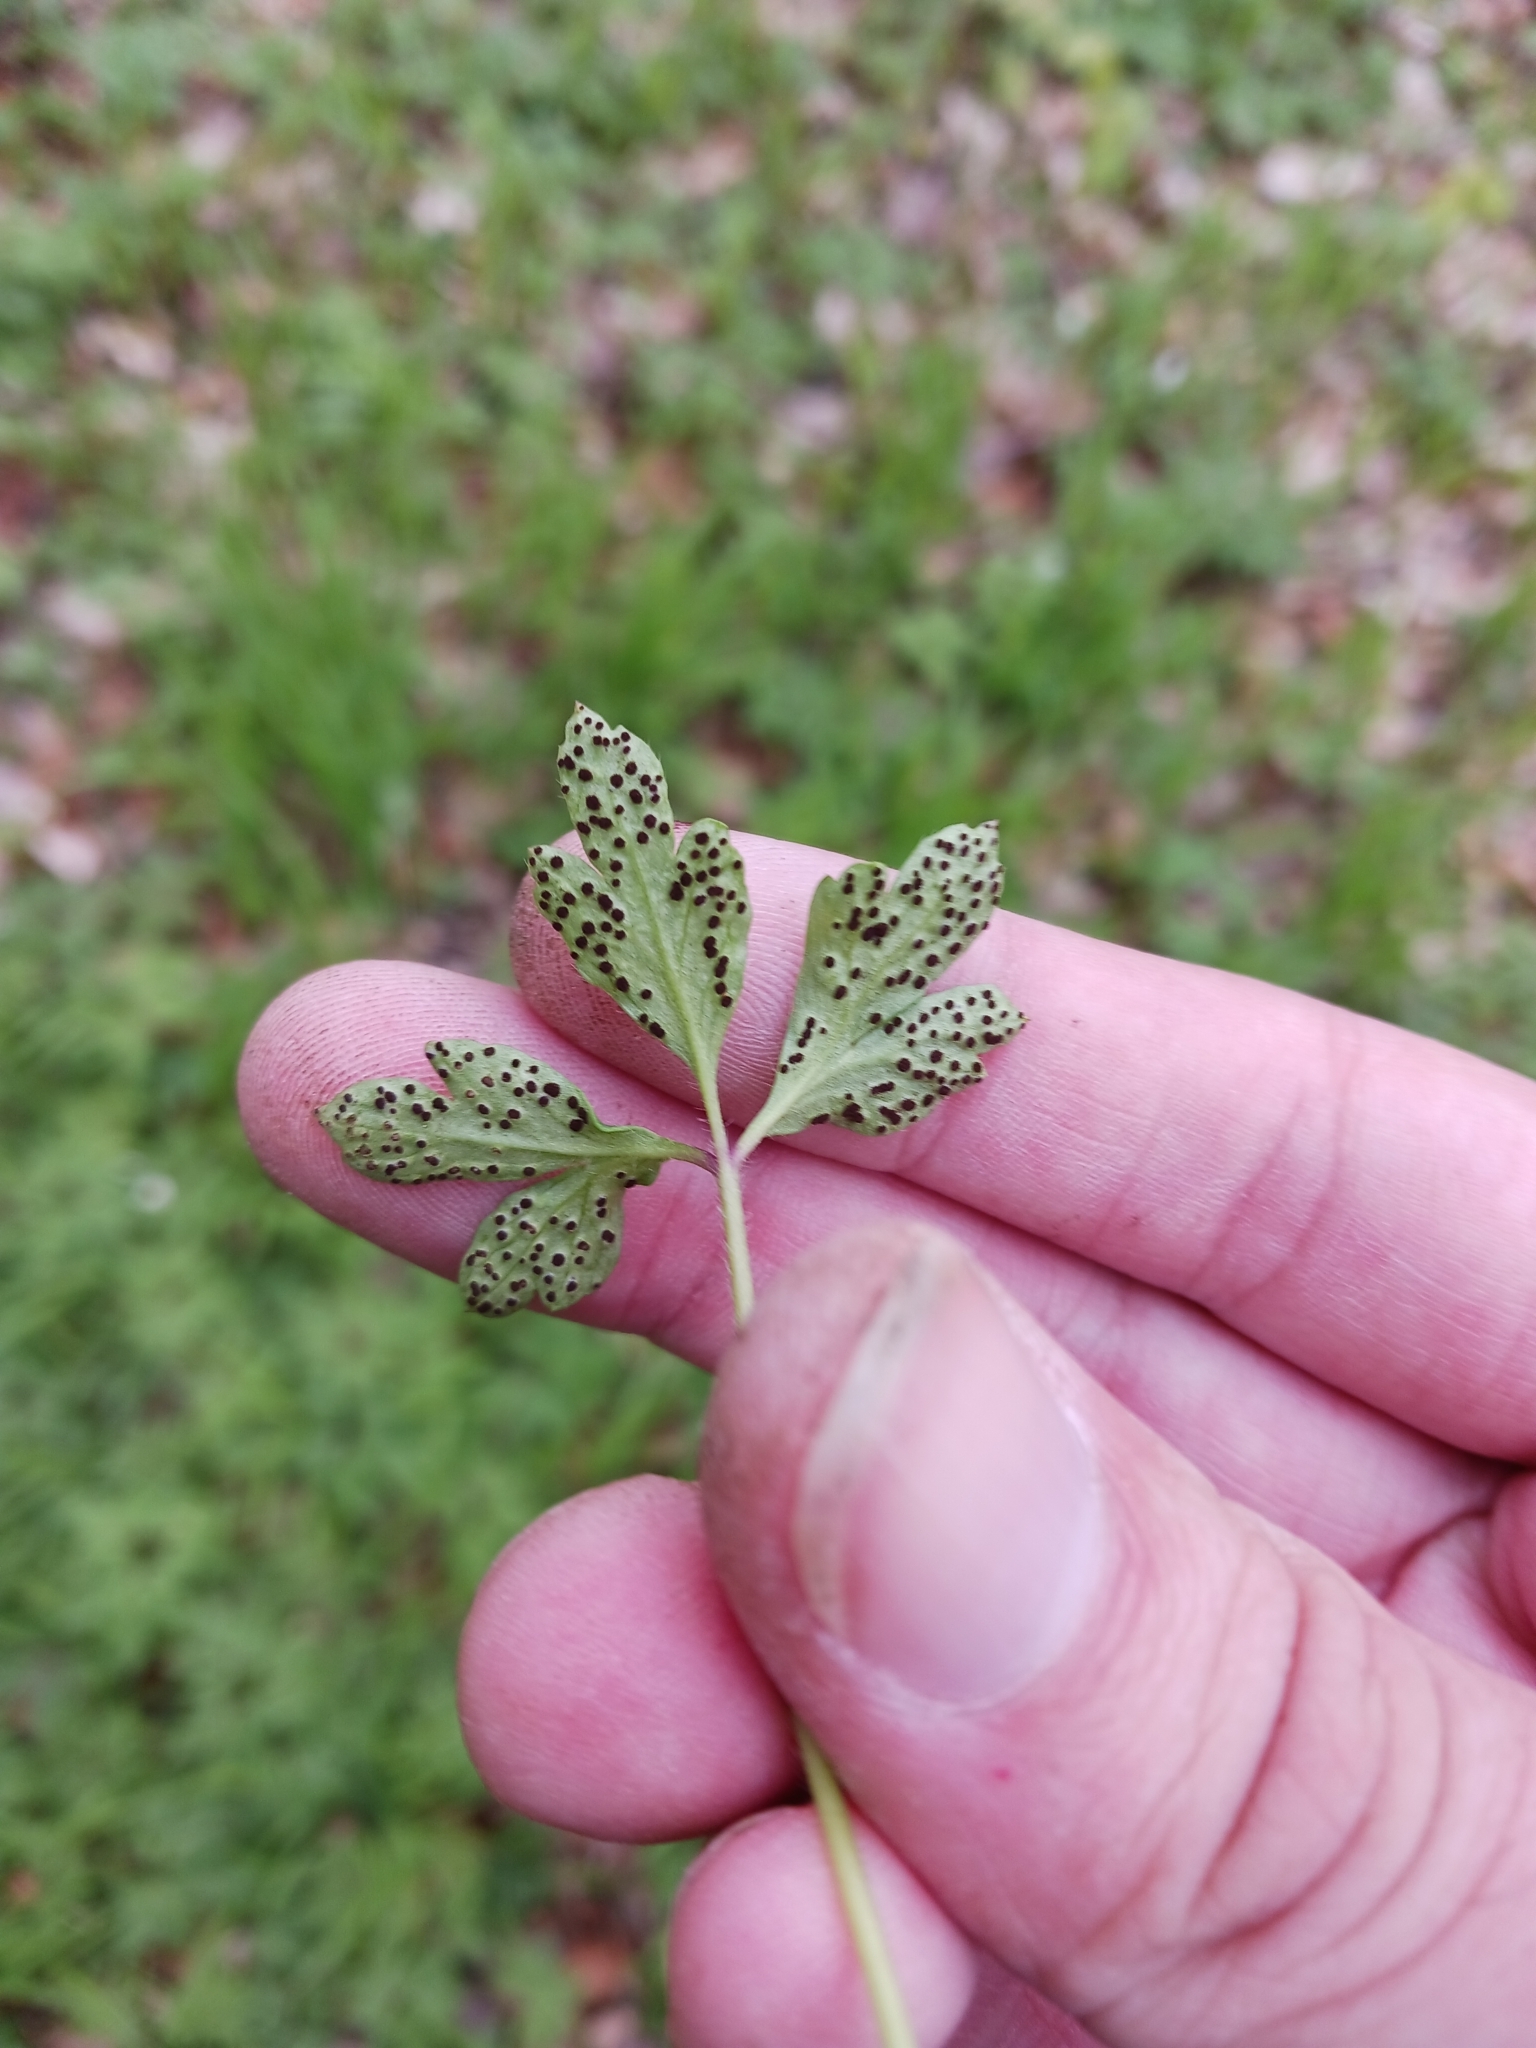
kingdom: Fungi
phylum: Basidiomycota
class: Pucciniomycetes
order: Pucciniales
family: Tranzscheliaceae
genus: Tranzschelia
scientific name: Tranzschelia anemones
